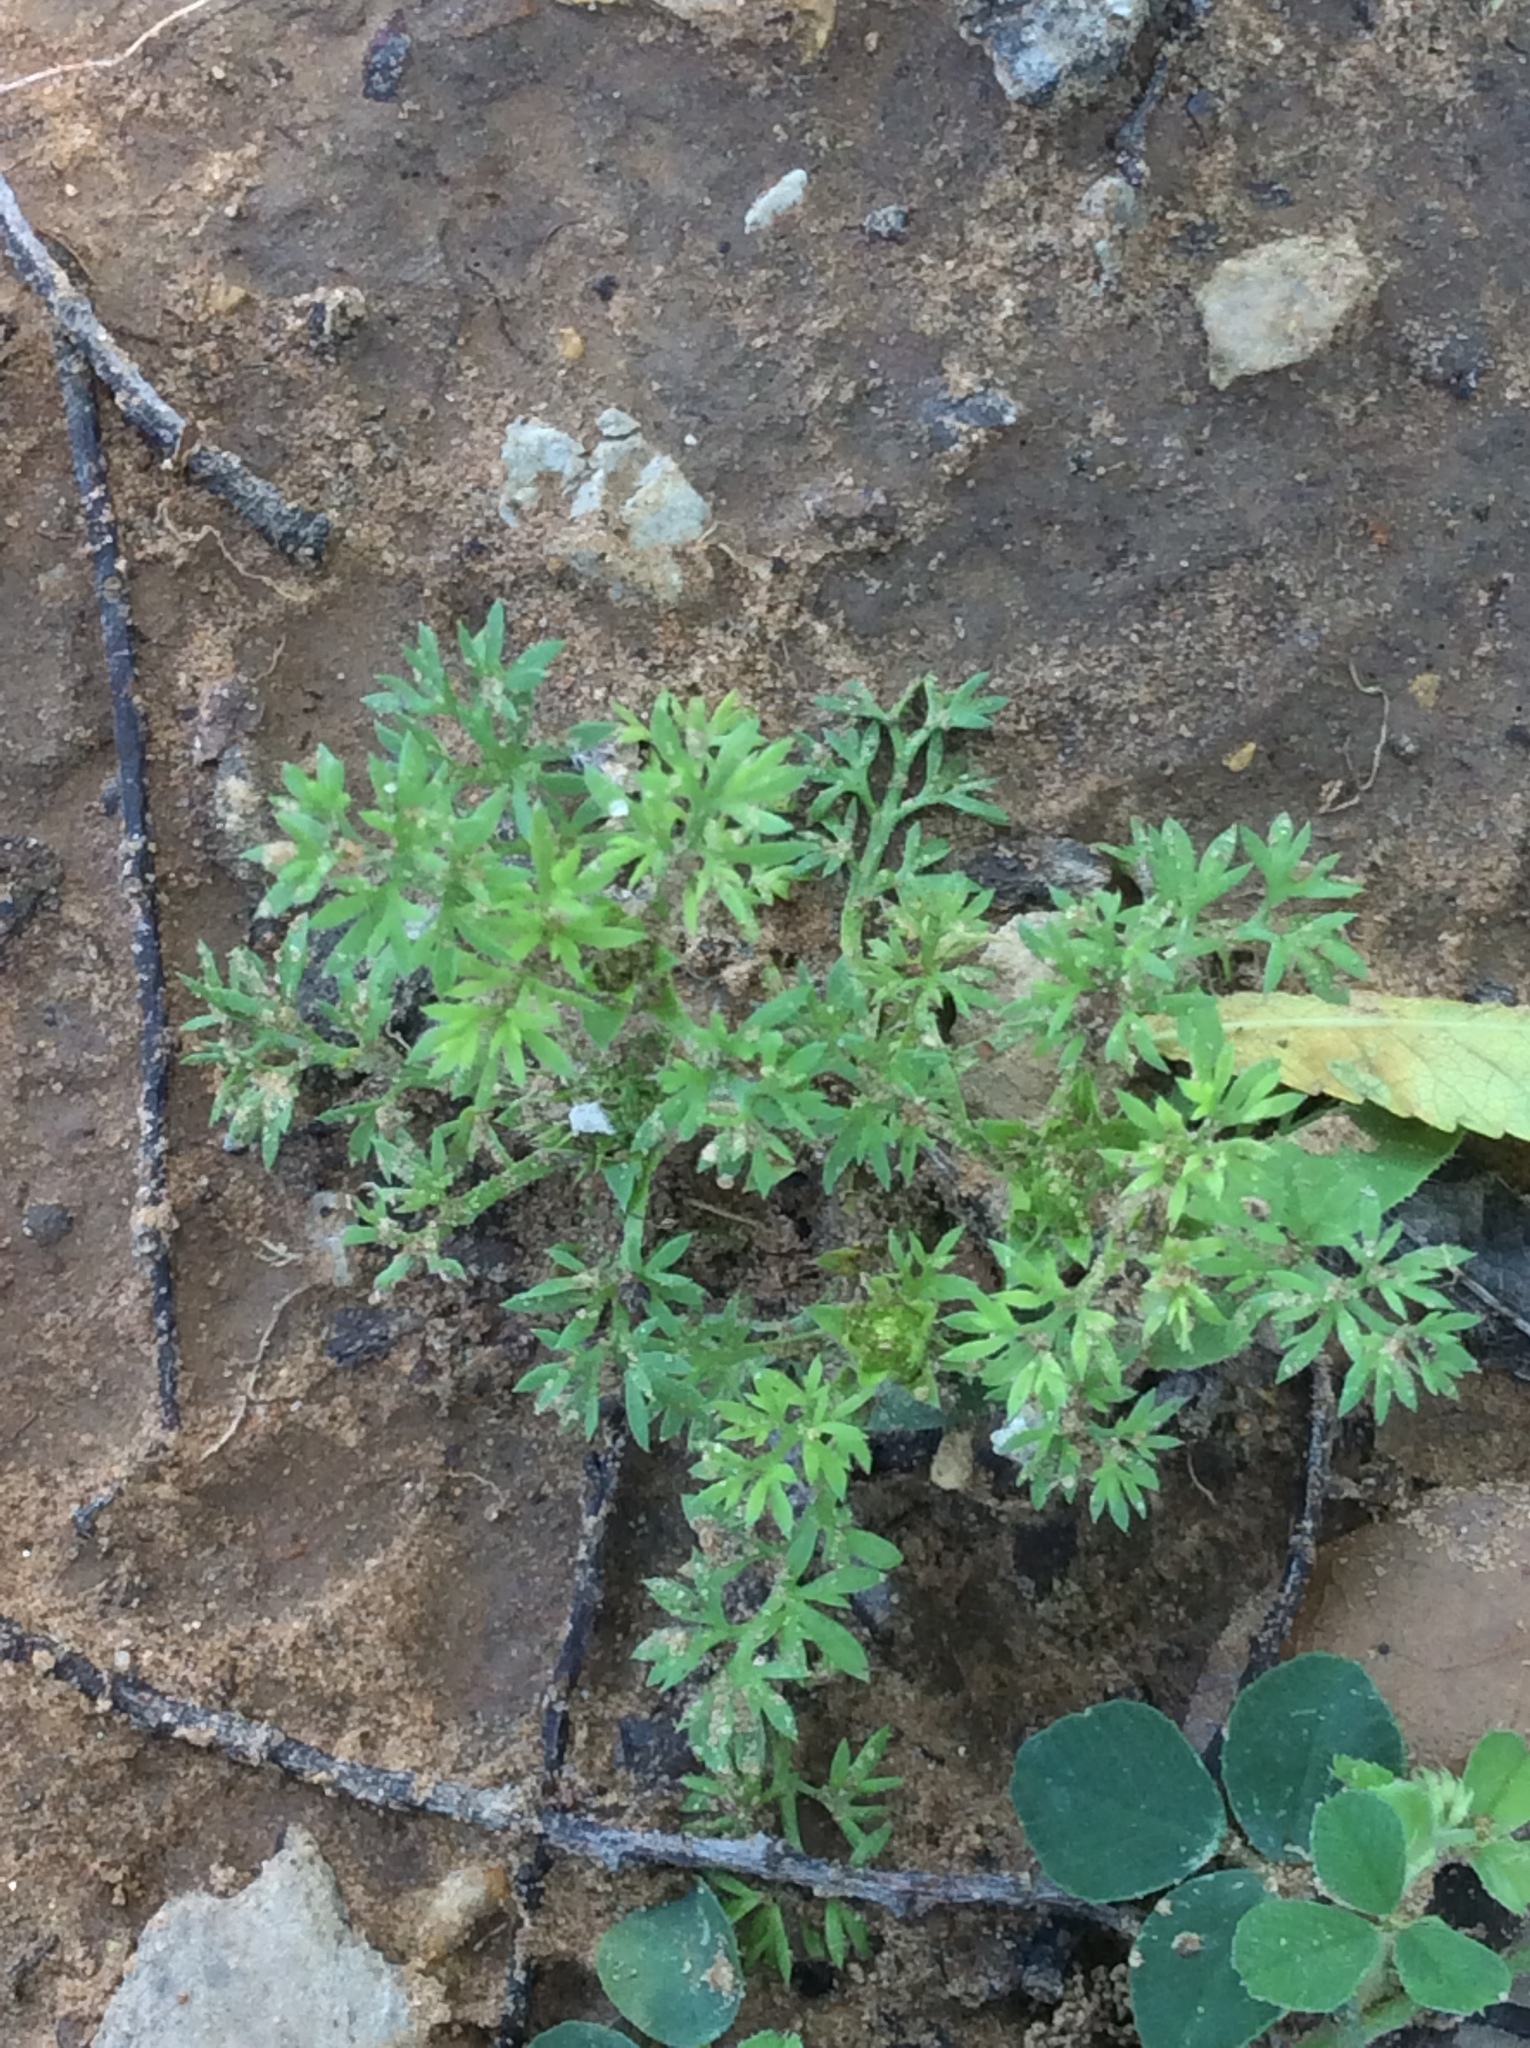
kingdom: Plantae
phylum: Tracheophyta
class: Magnoliopsida
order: Asterales
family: Asteraceae
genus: Soliva
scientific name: Soliva sessilis
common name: Field burrweed
